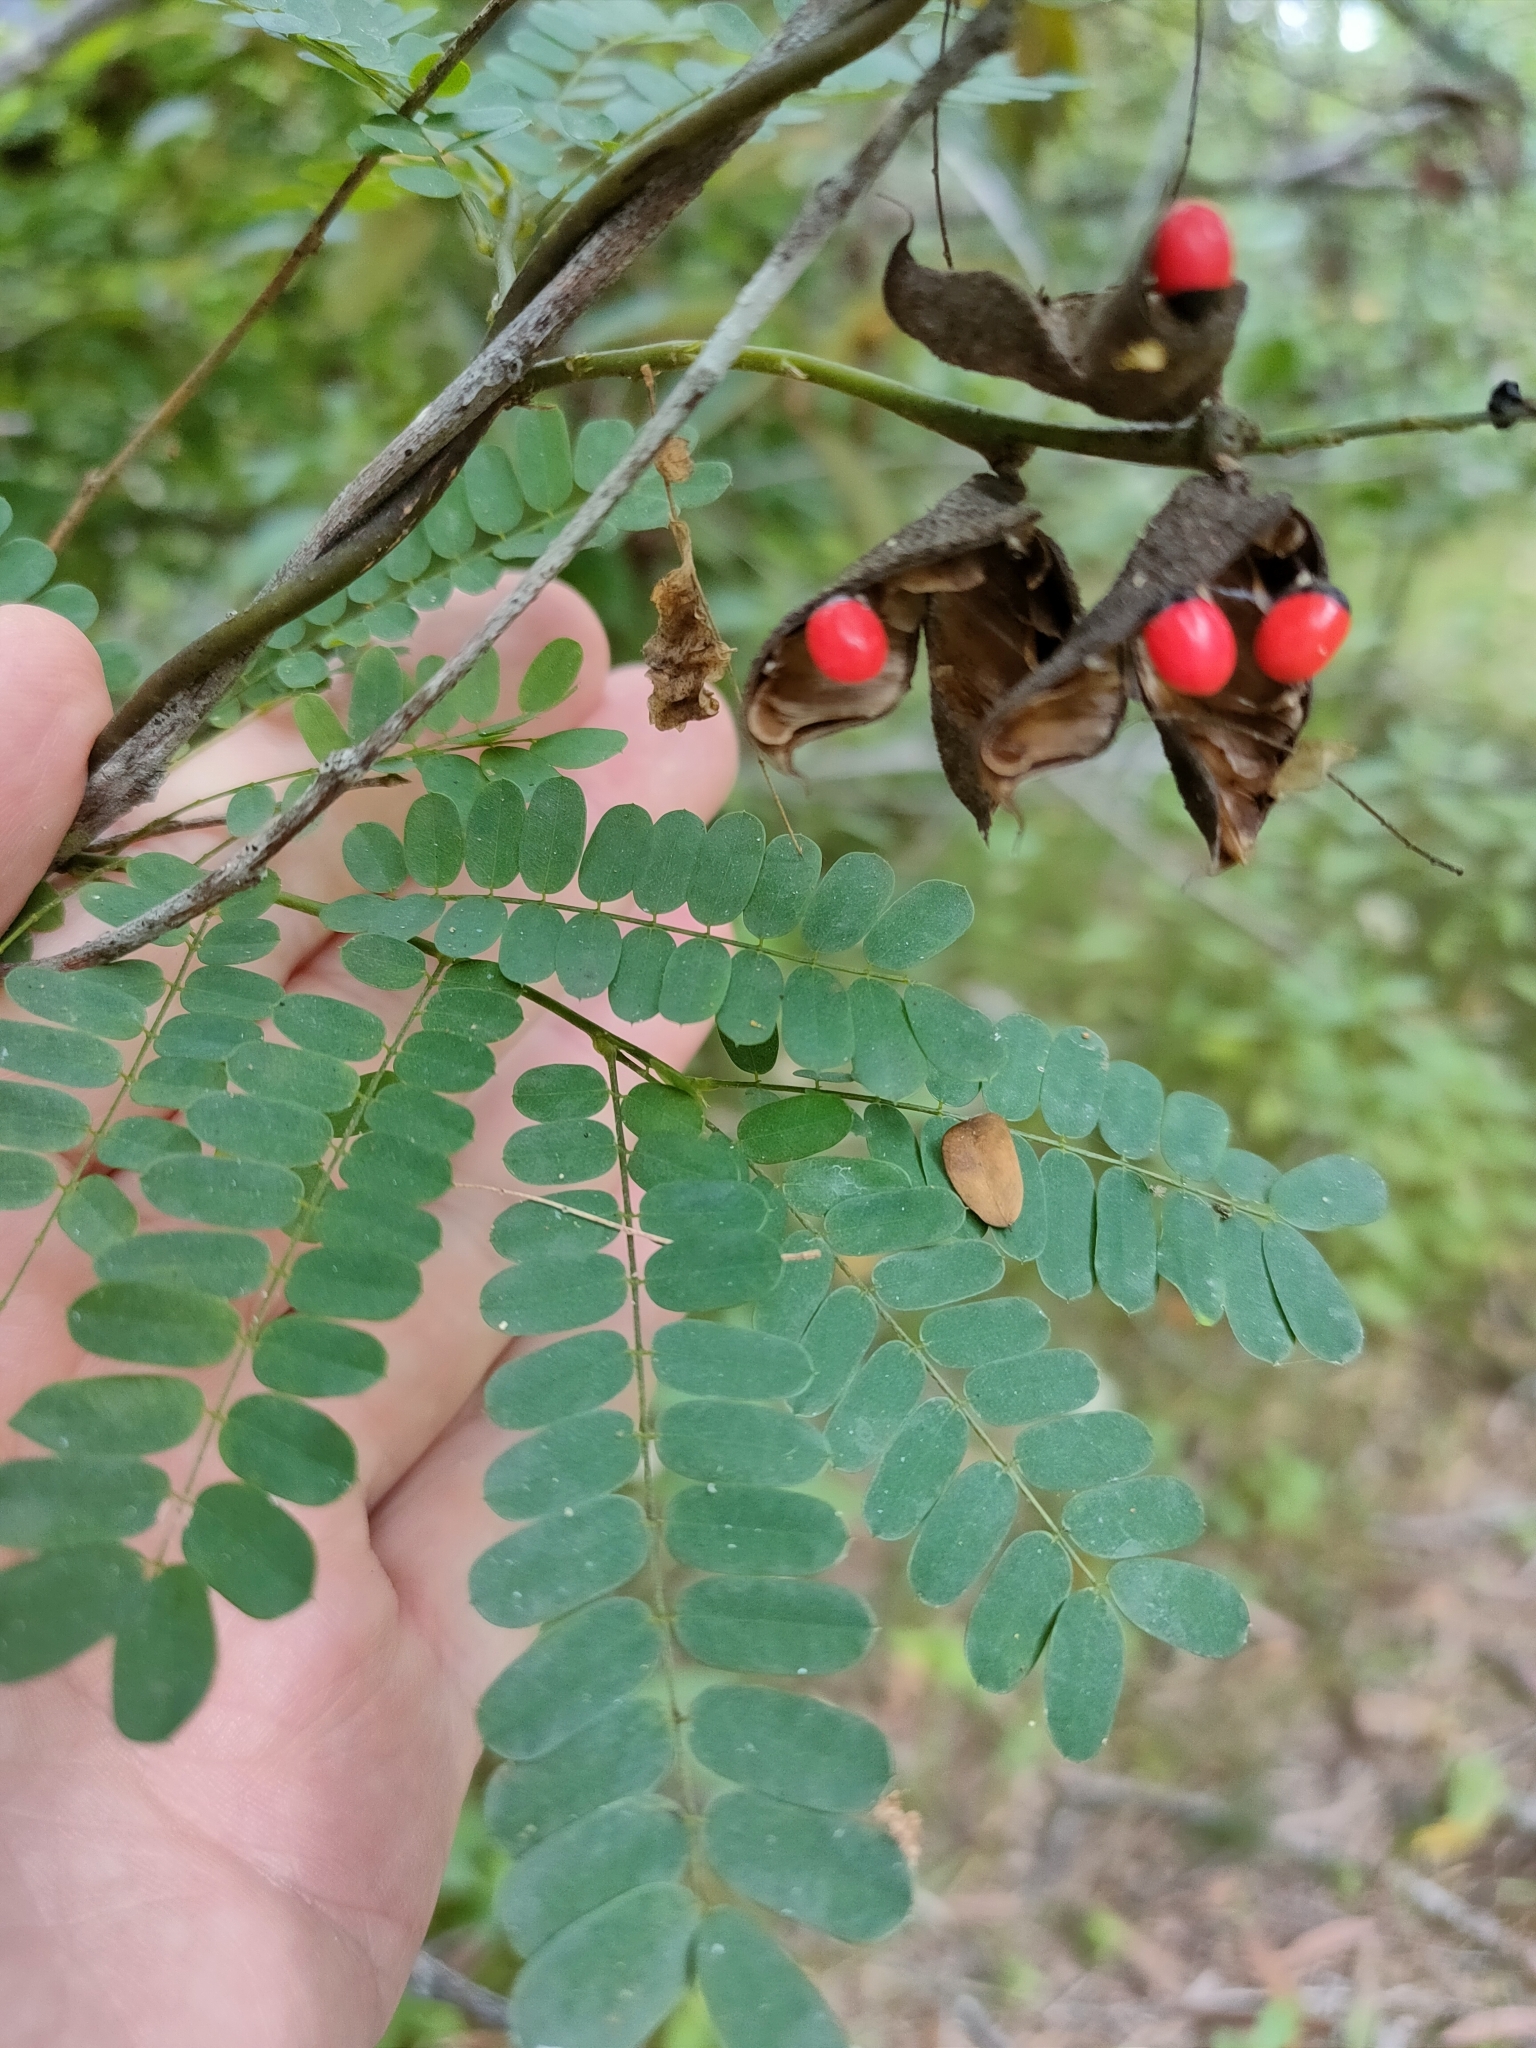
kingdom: Plantae
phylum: Tracheophyta
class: Magnoliopsida
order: Fabales
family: Fabaceae
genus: Abrus
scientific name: Abrus precatorius
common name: Rosarypea
